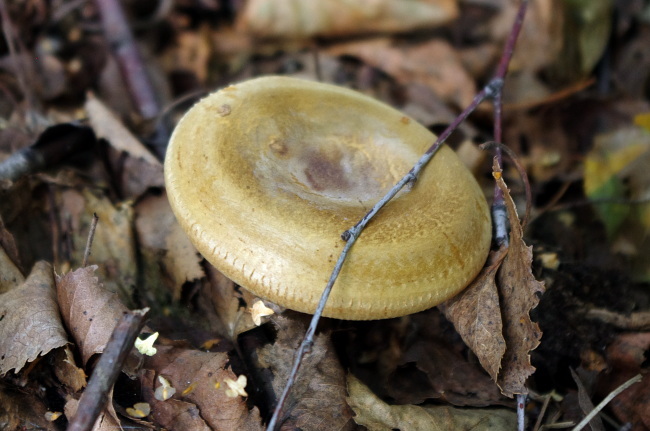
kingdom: Fungi
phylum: Basidiomycota
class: Agaricomycetes
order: Boletales
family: Paxillaceae
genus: Paxillus
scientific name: Paxillus involutus
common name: Brown roll rim
